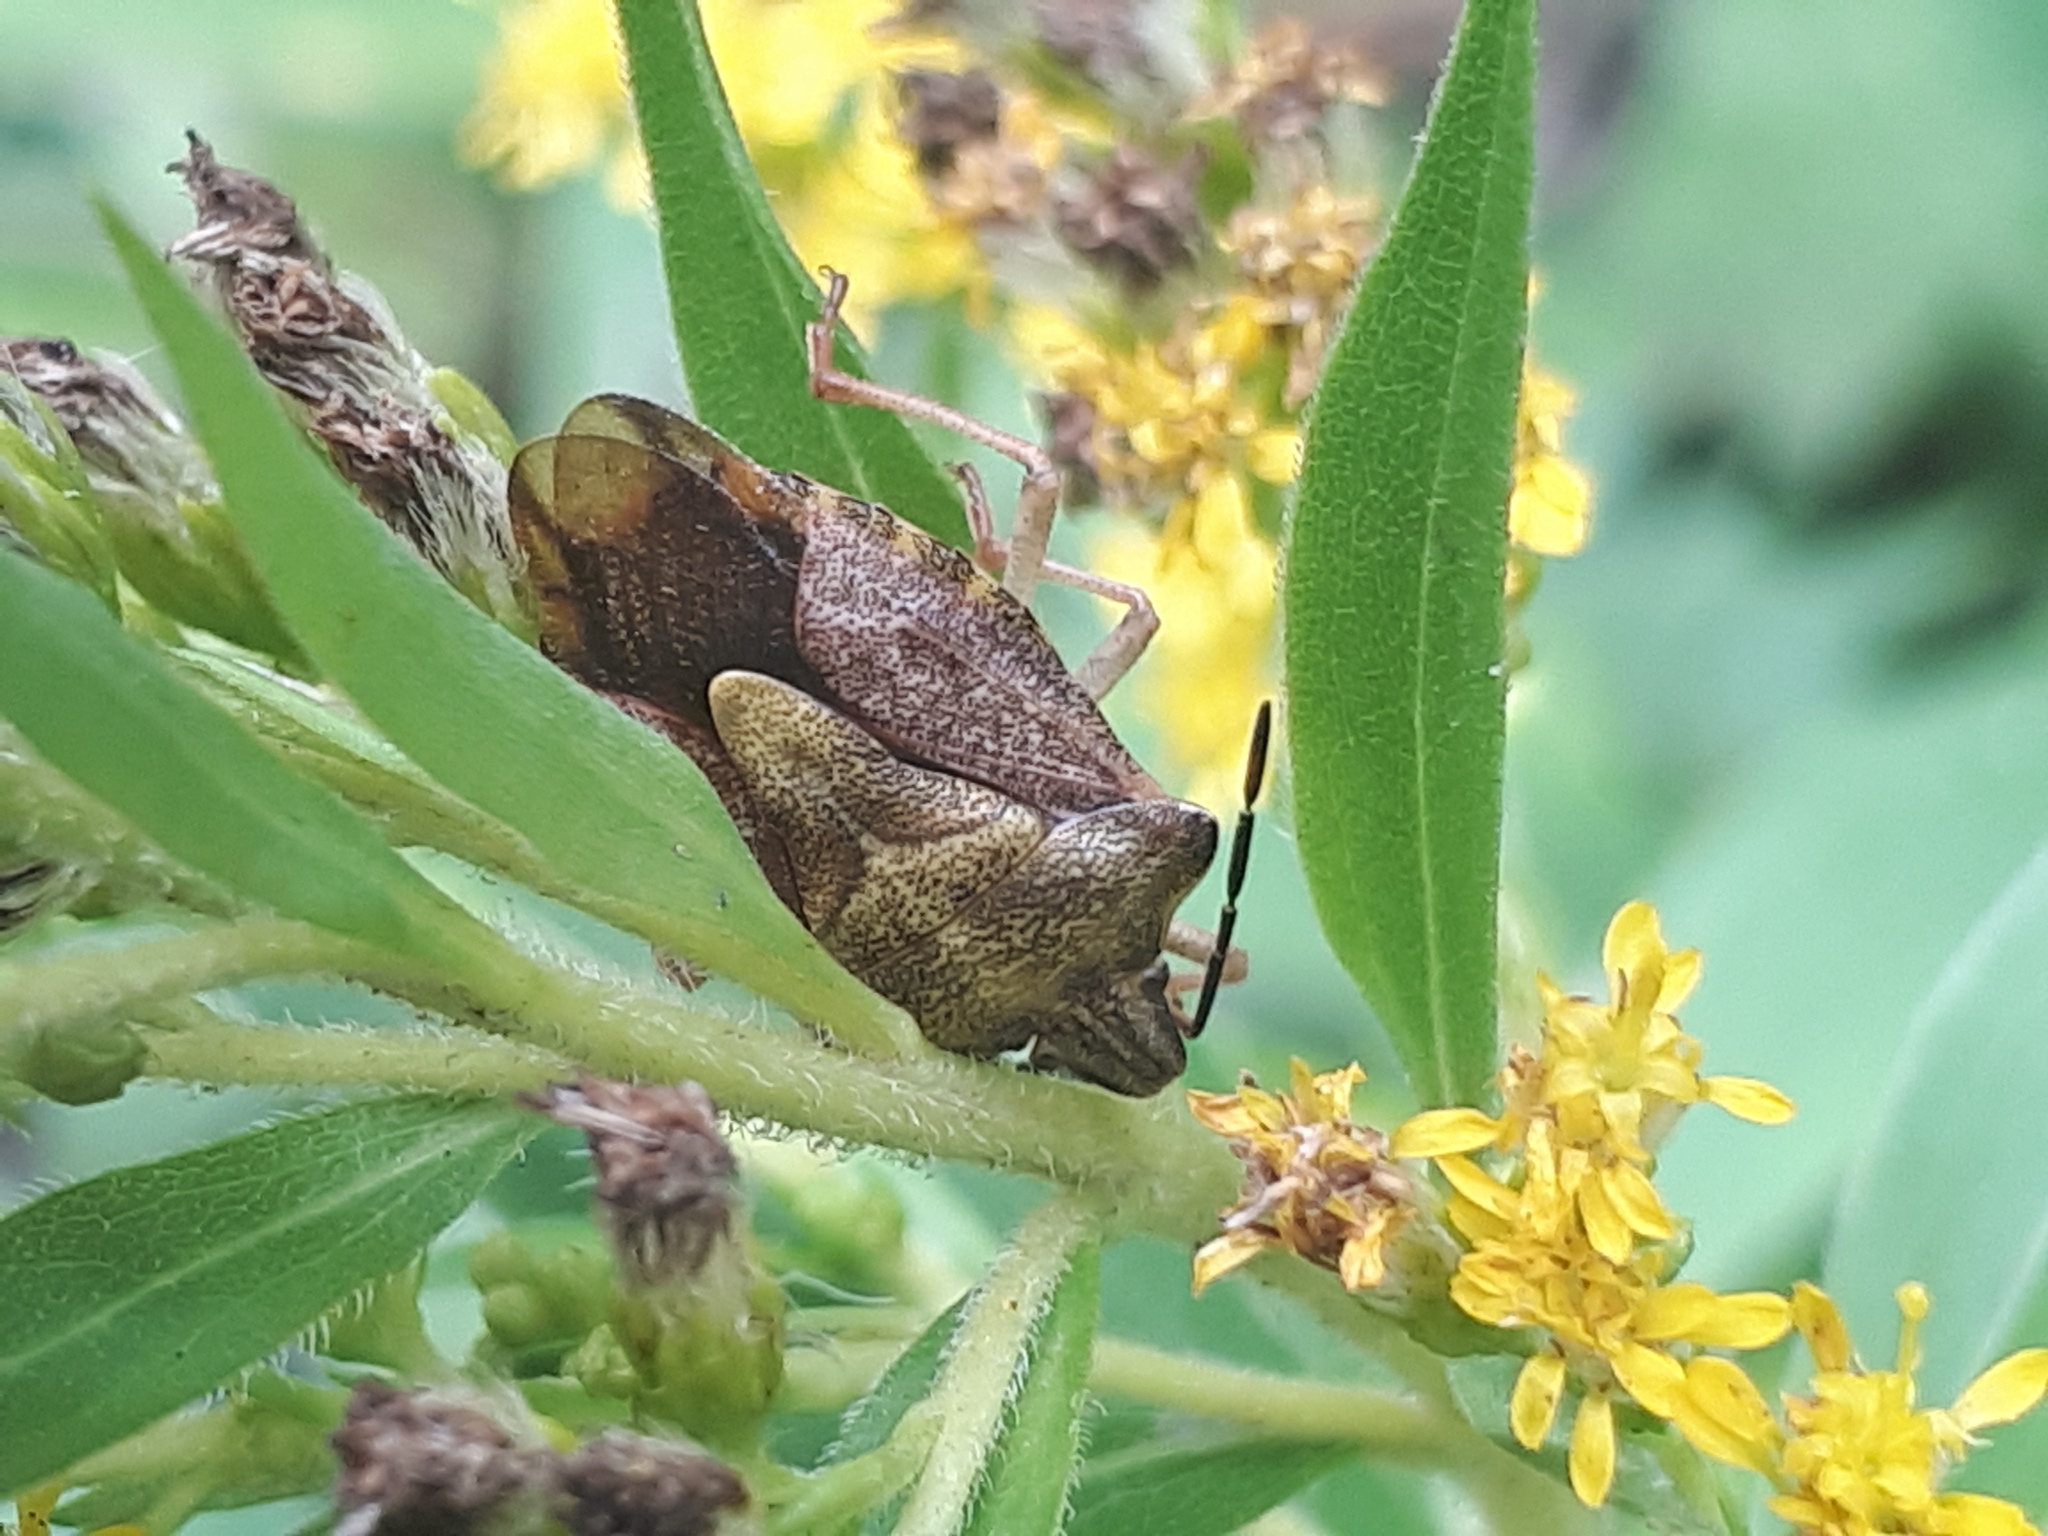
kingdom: Animalia
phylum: Arthropoda
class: Insecta
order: Hemiptera
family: Pentatomidae
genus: Carpocoris
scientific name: Carpocoris purpureipennis
